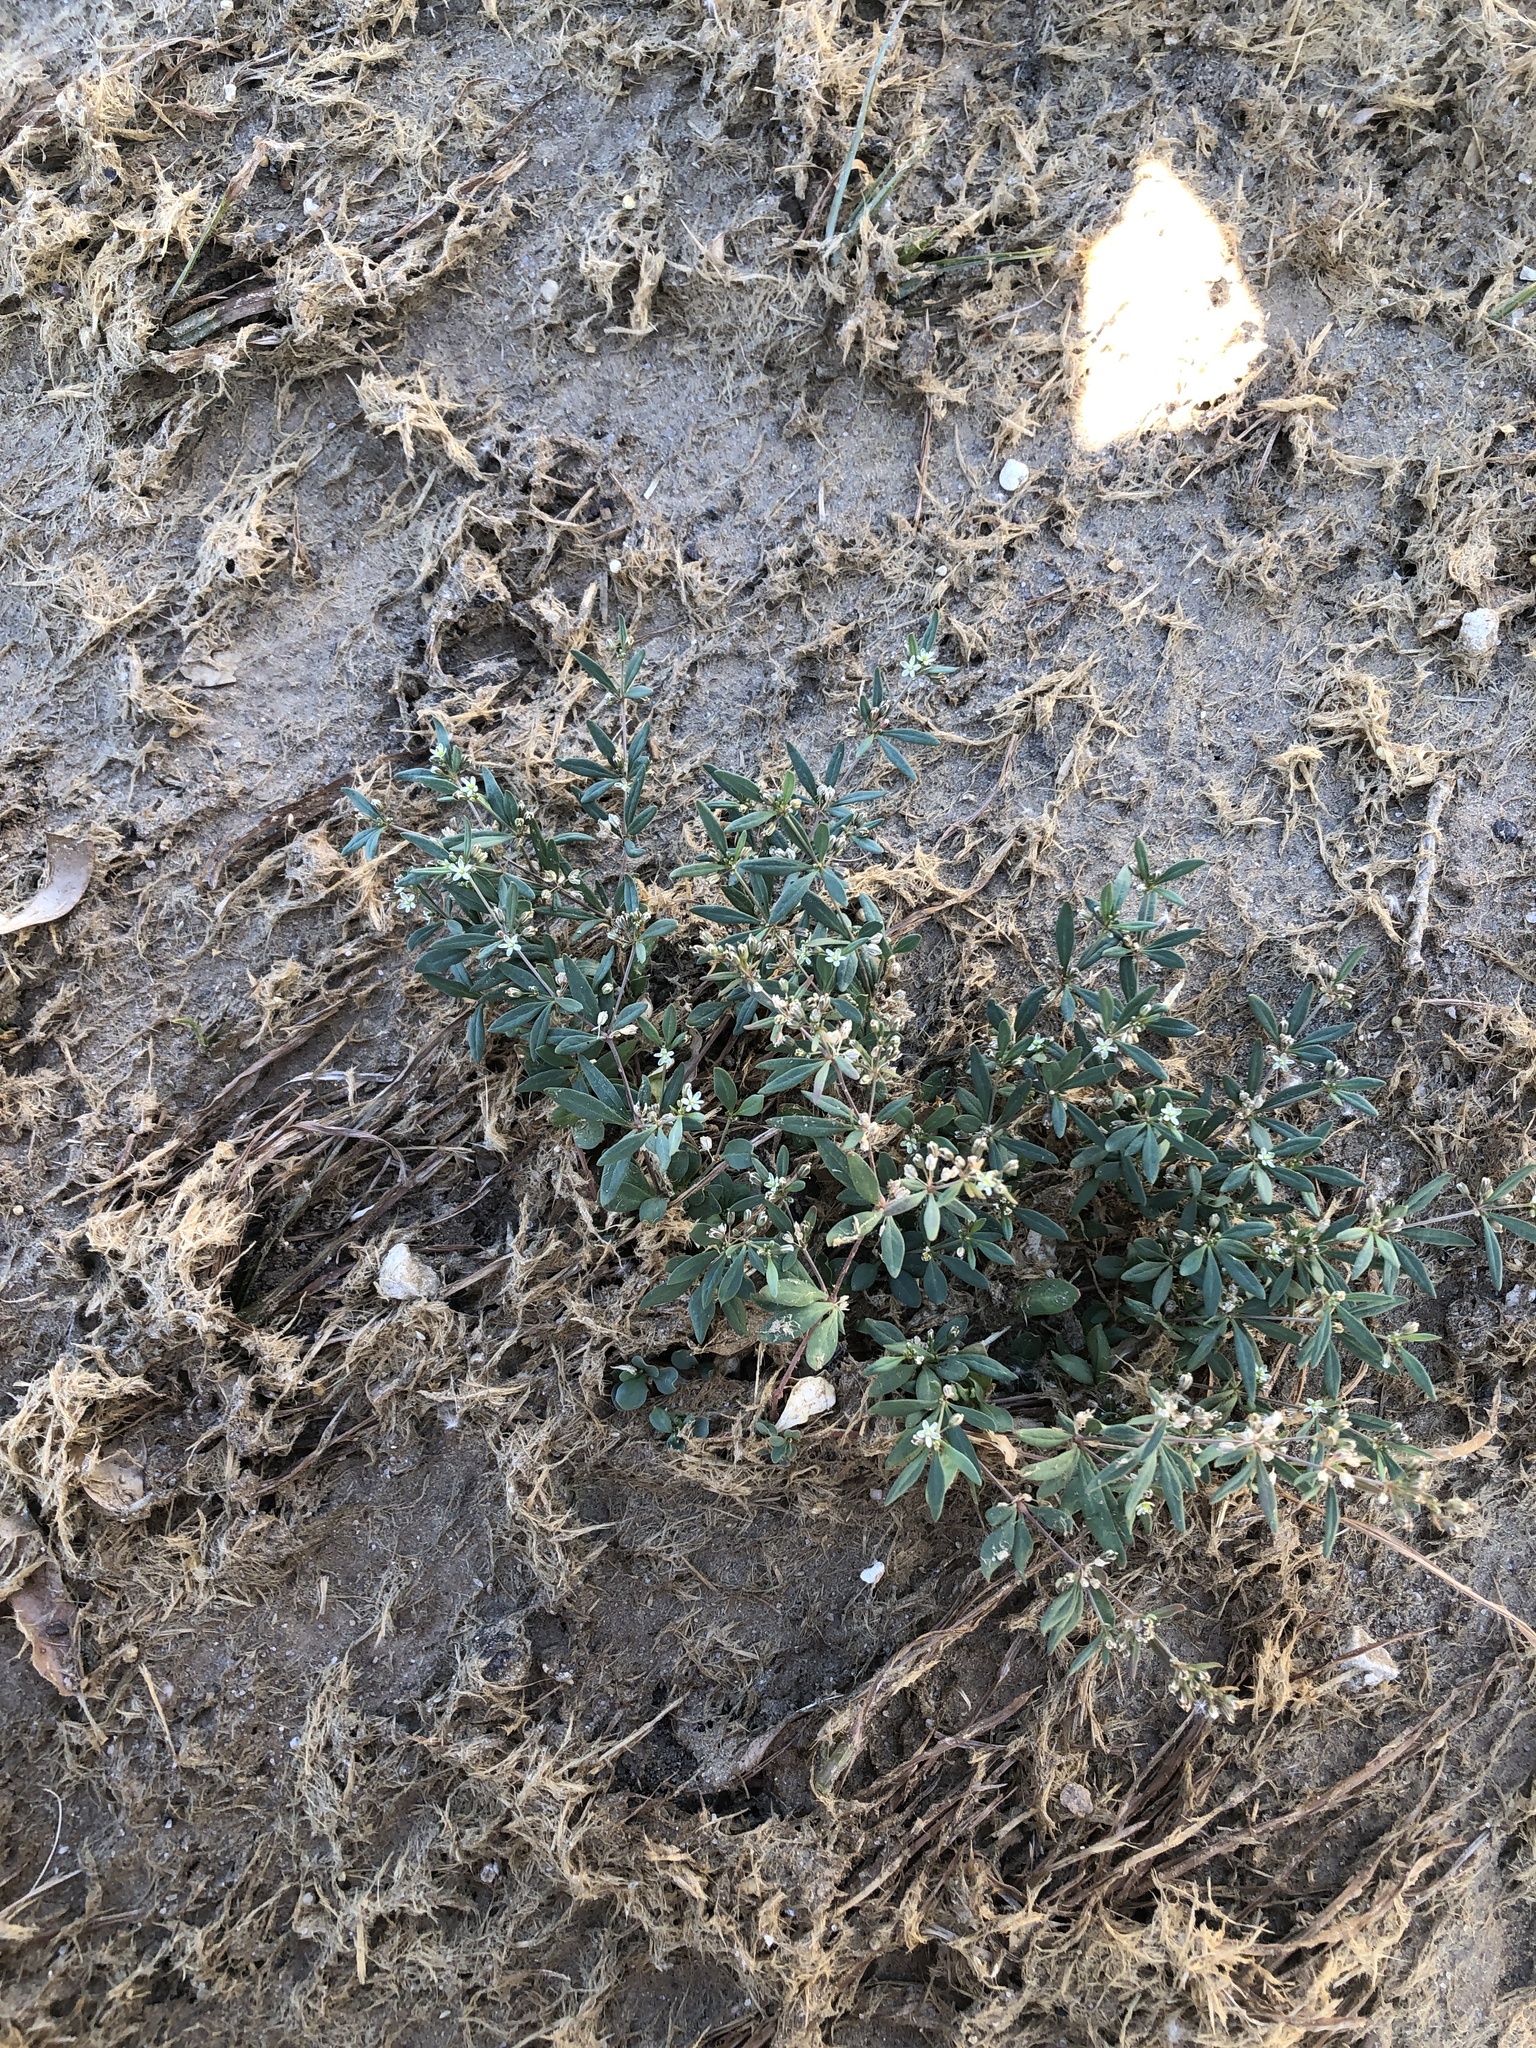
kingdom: Plantae
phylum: Tracheophyta
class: Magnoliopsida
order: Caryophyllales
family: Molluginaceae
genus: Mollugo
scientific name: Mollugo verticillata
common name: Green carpetweed
